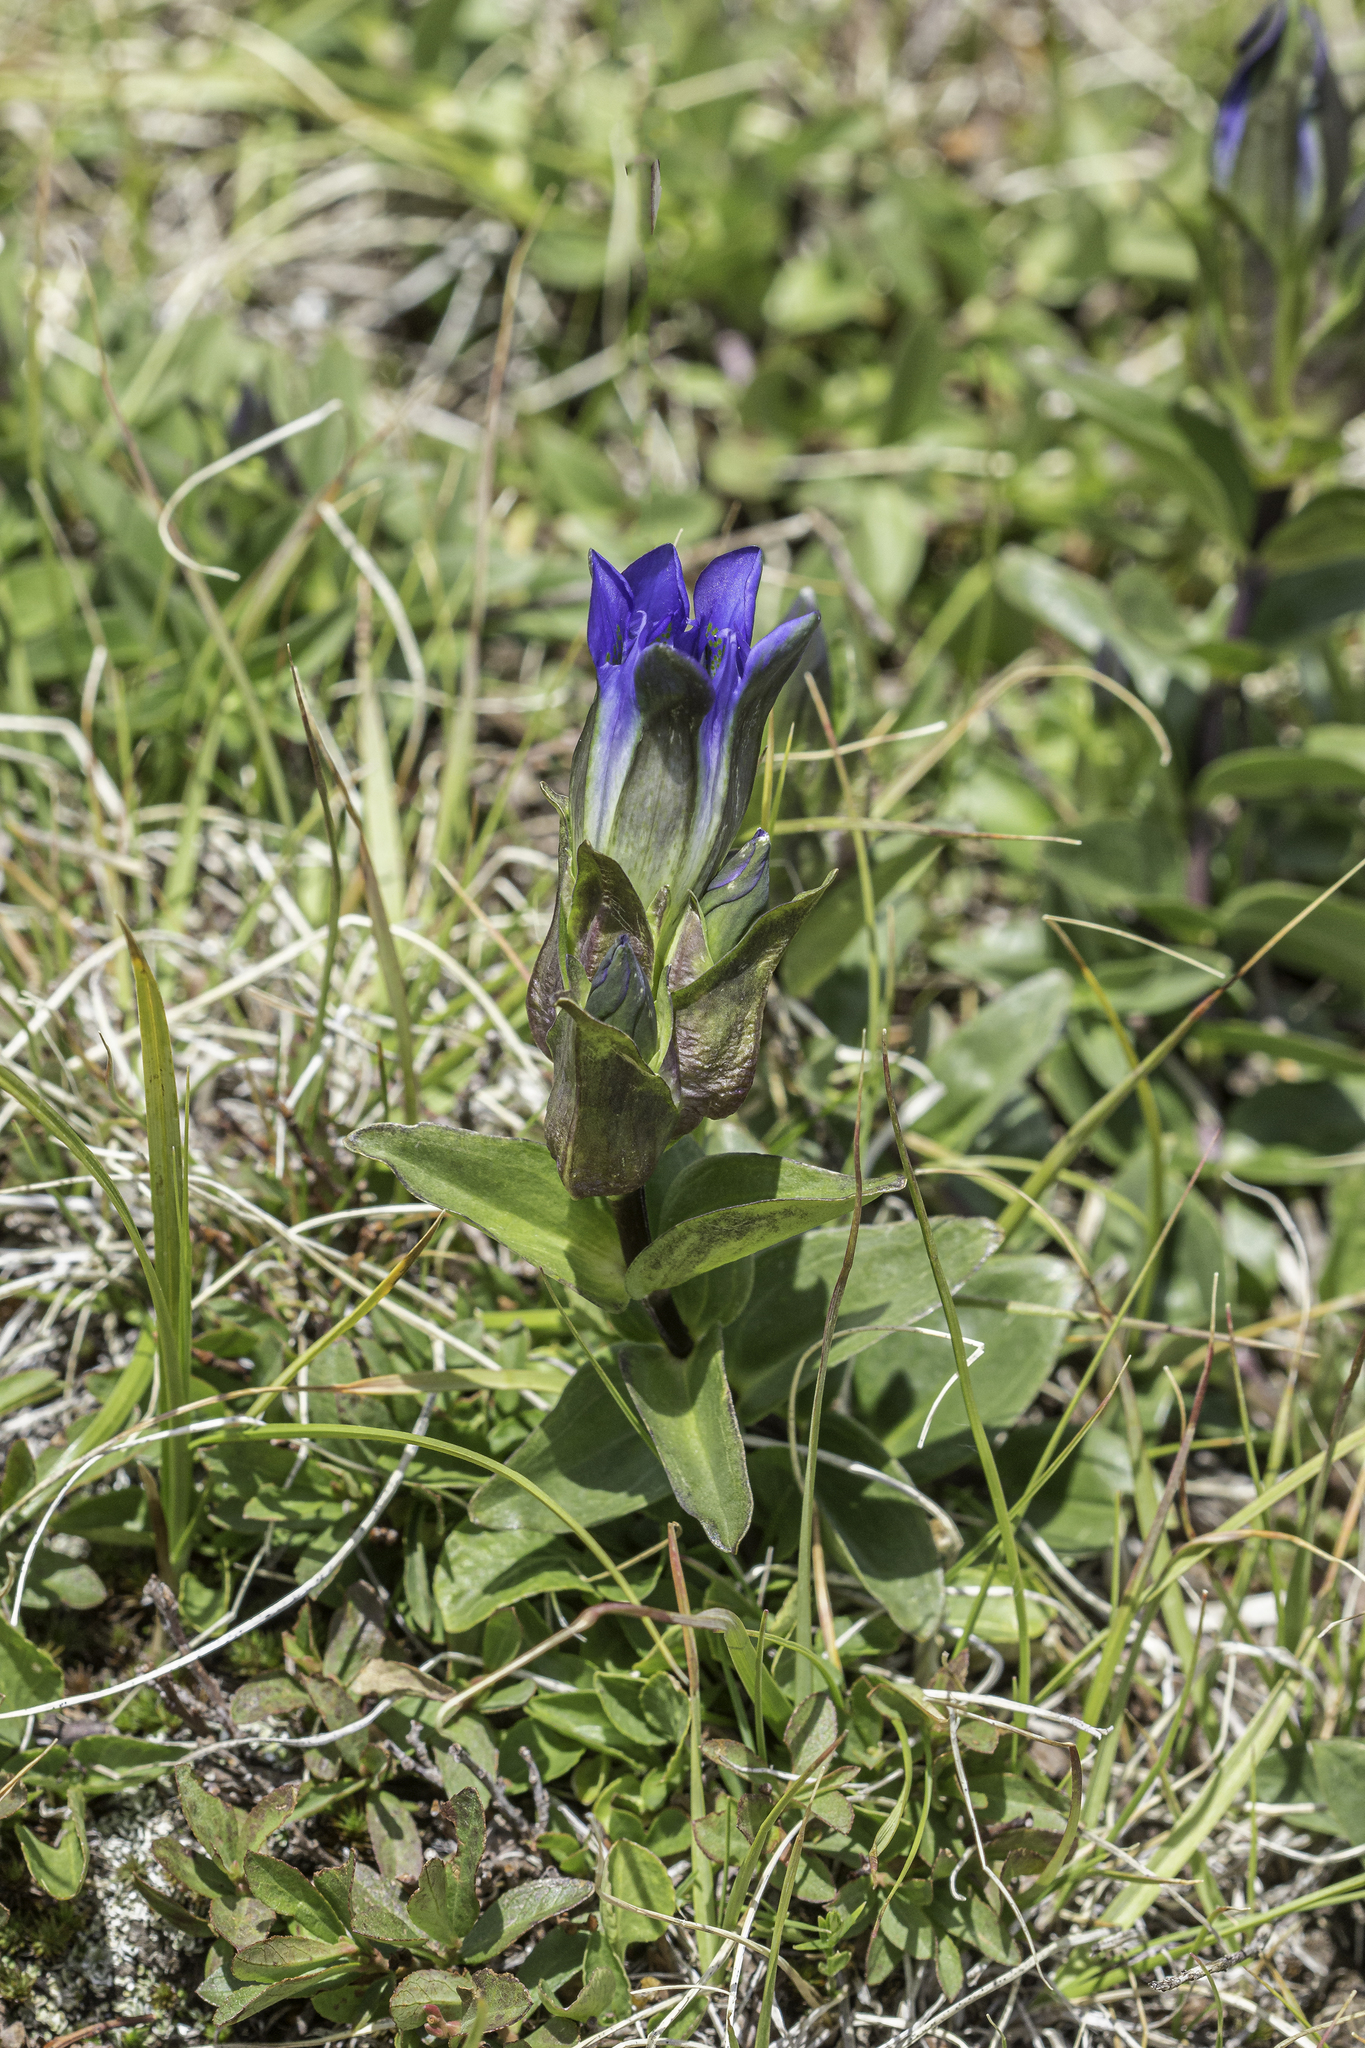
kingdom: Plantae
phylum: Tracheophyta
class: Magnoliopsida
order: Gentianales
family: Gentianaceae
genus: Gentiana
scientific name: Gentiana parryi
